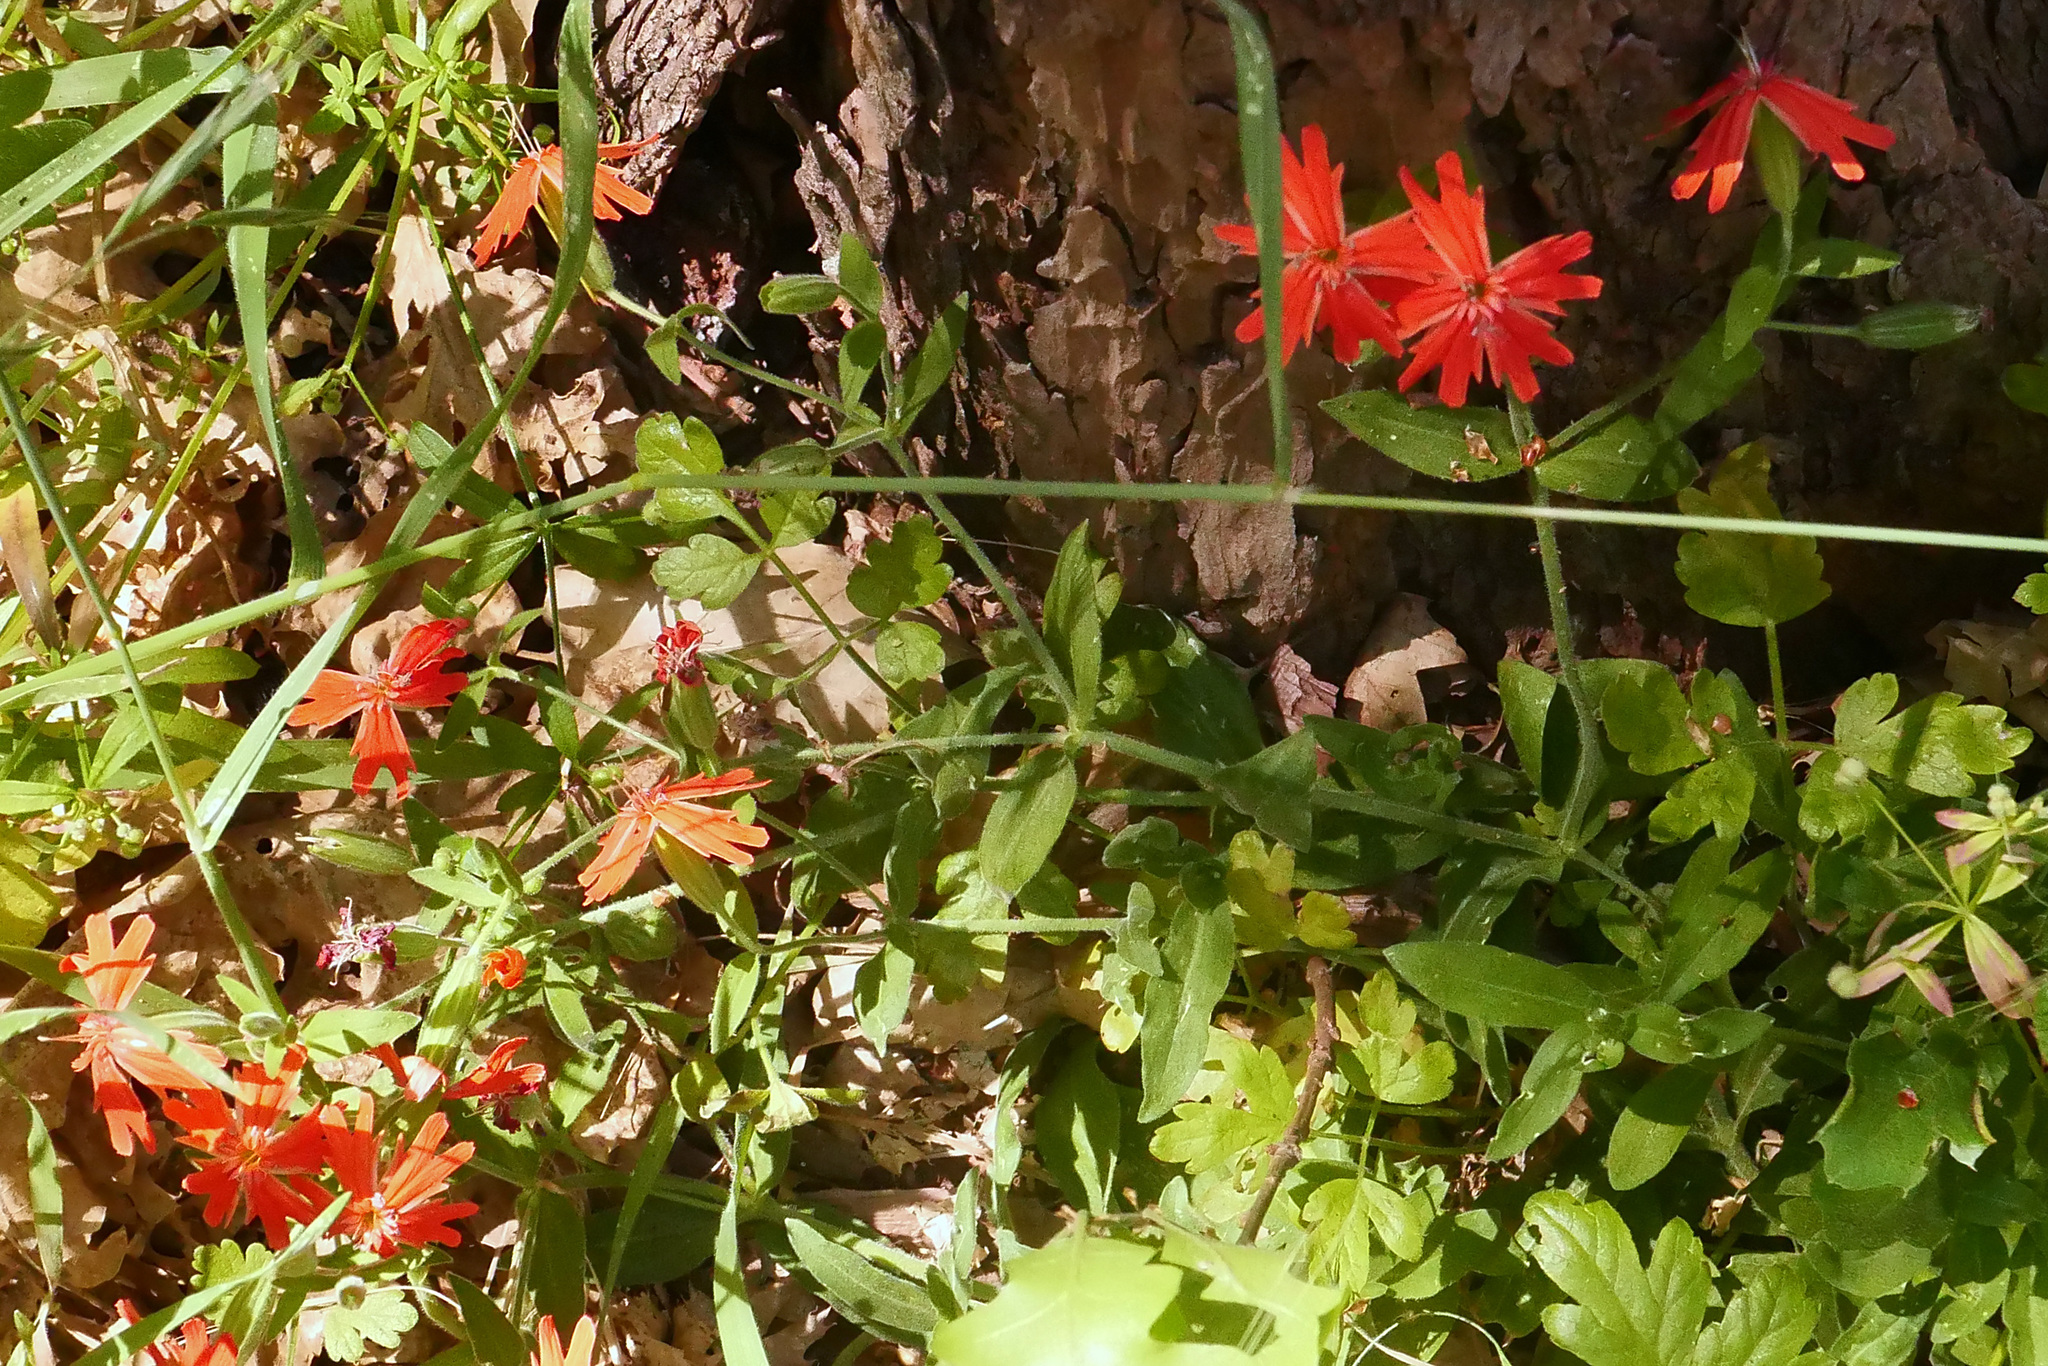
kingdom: Plantae
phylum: Tracheophyta
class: Magnoliopsida
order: Caryophyllales
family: Caryophyllaceae
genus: Silene
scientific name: Silene laciniata
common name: Indian-pink
